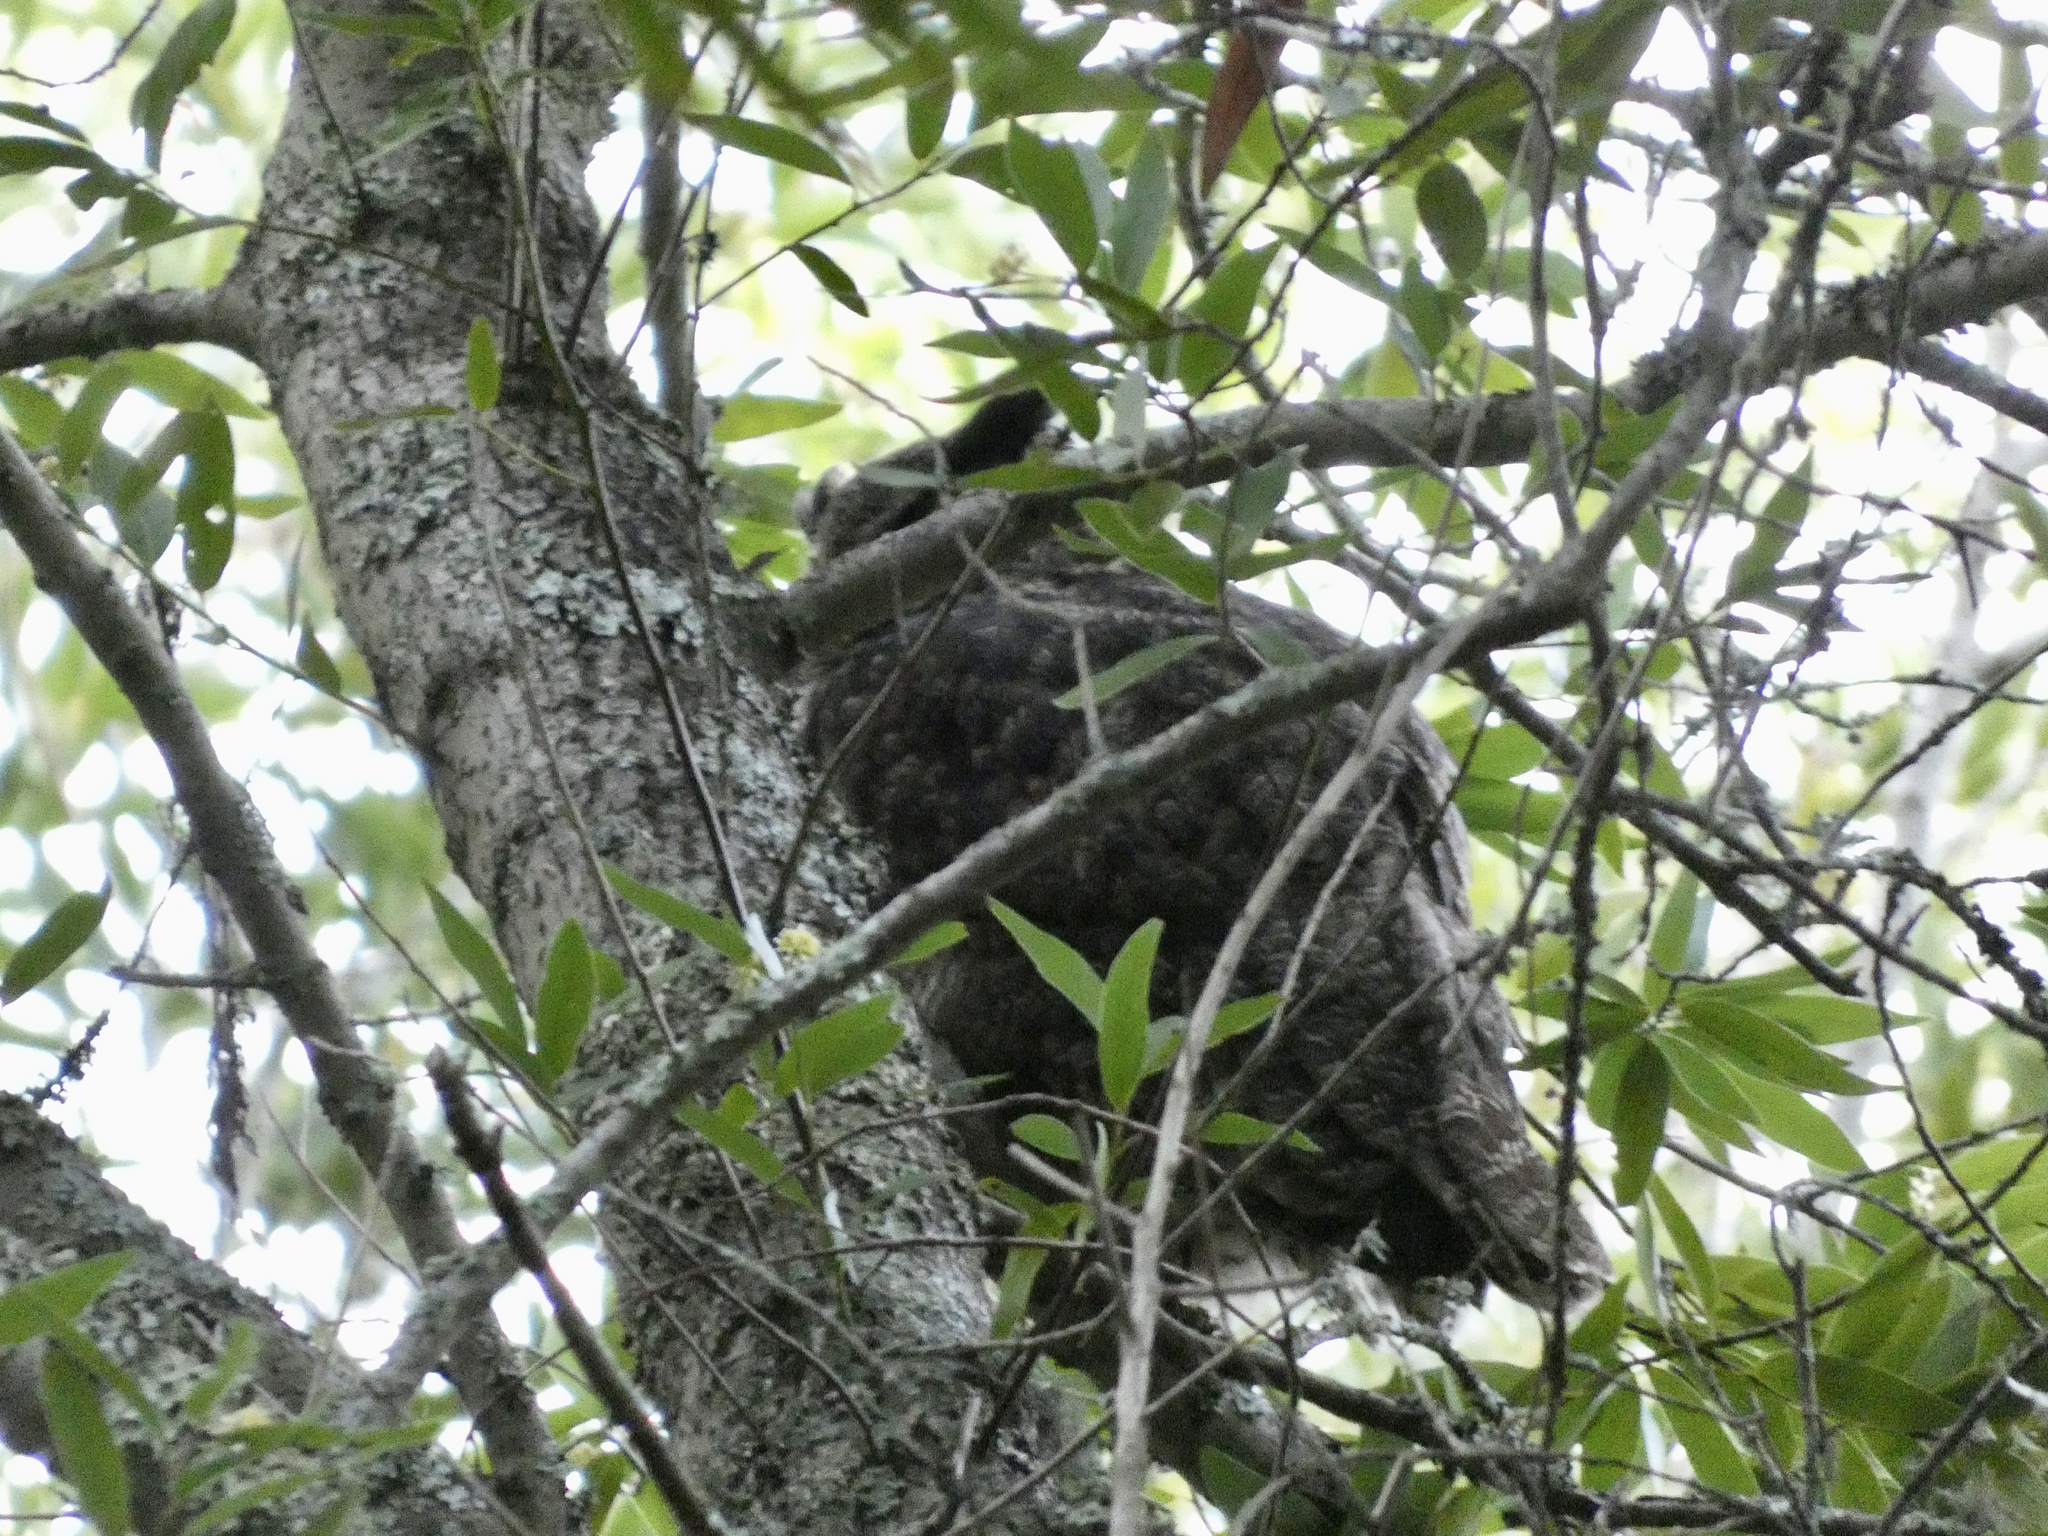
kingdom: Animalia
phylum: Chordata
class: Aves
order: Strigiformes
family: Strigidae
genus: Bubo
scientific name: Bubo virginianus
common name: Great horned owl
